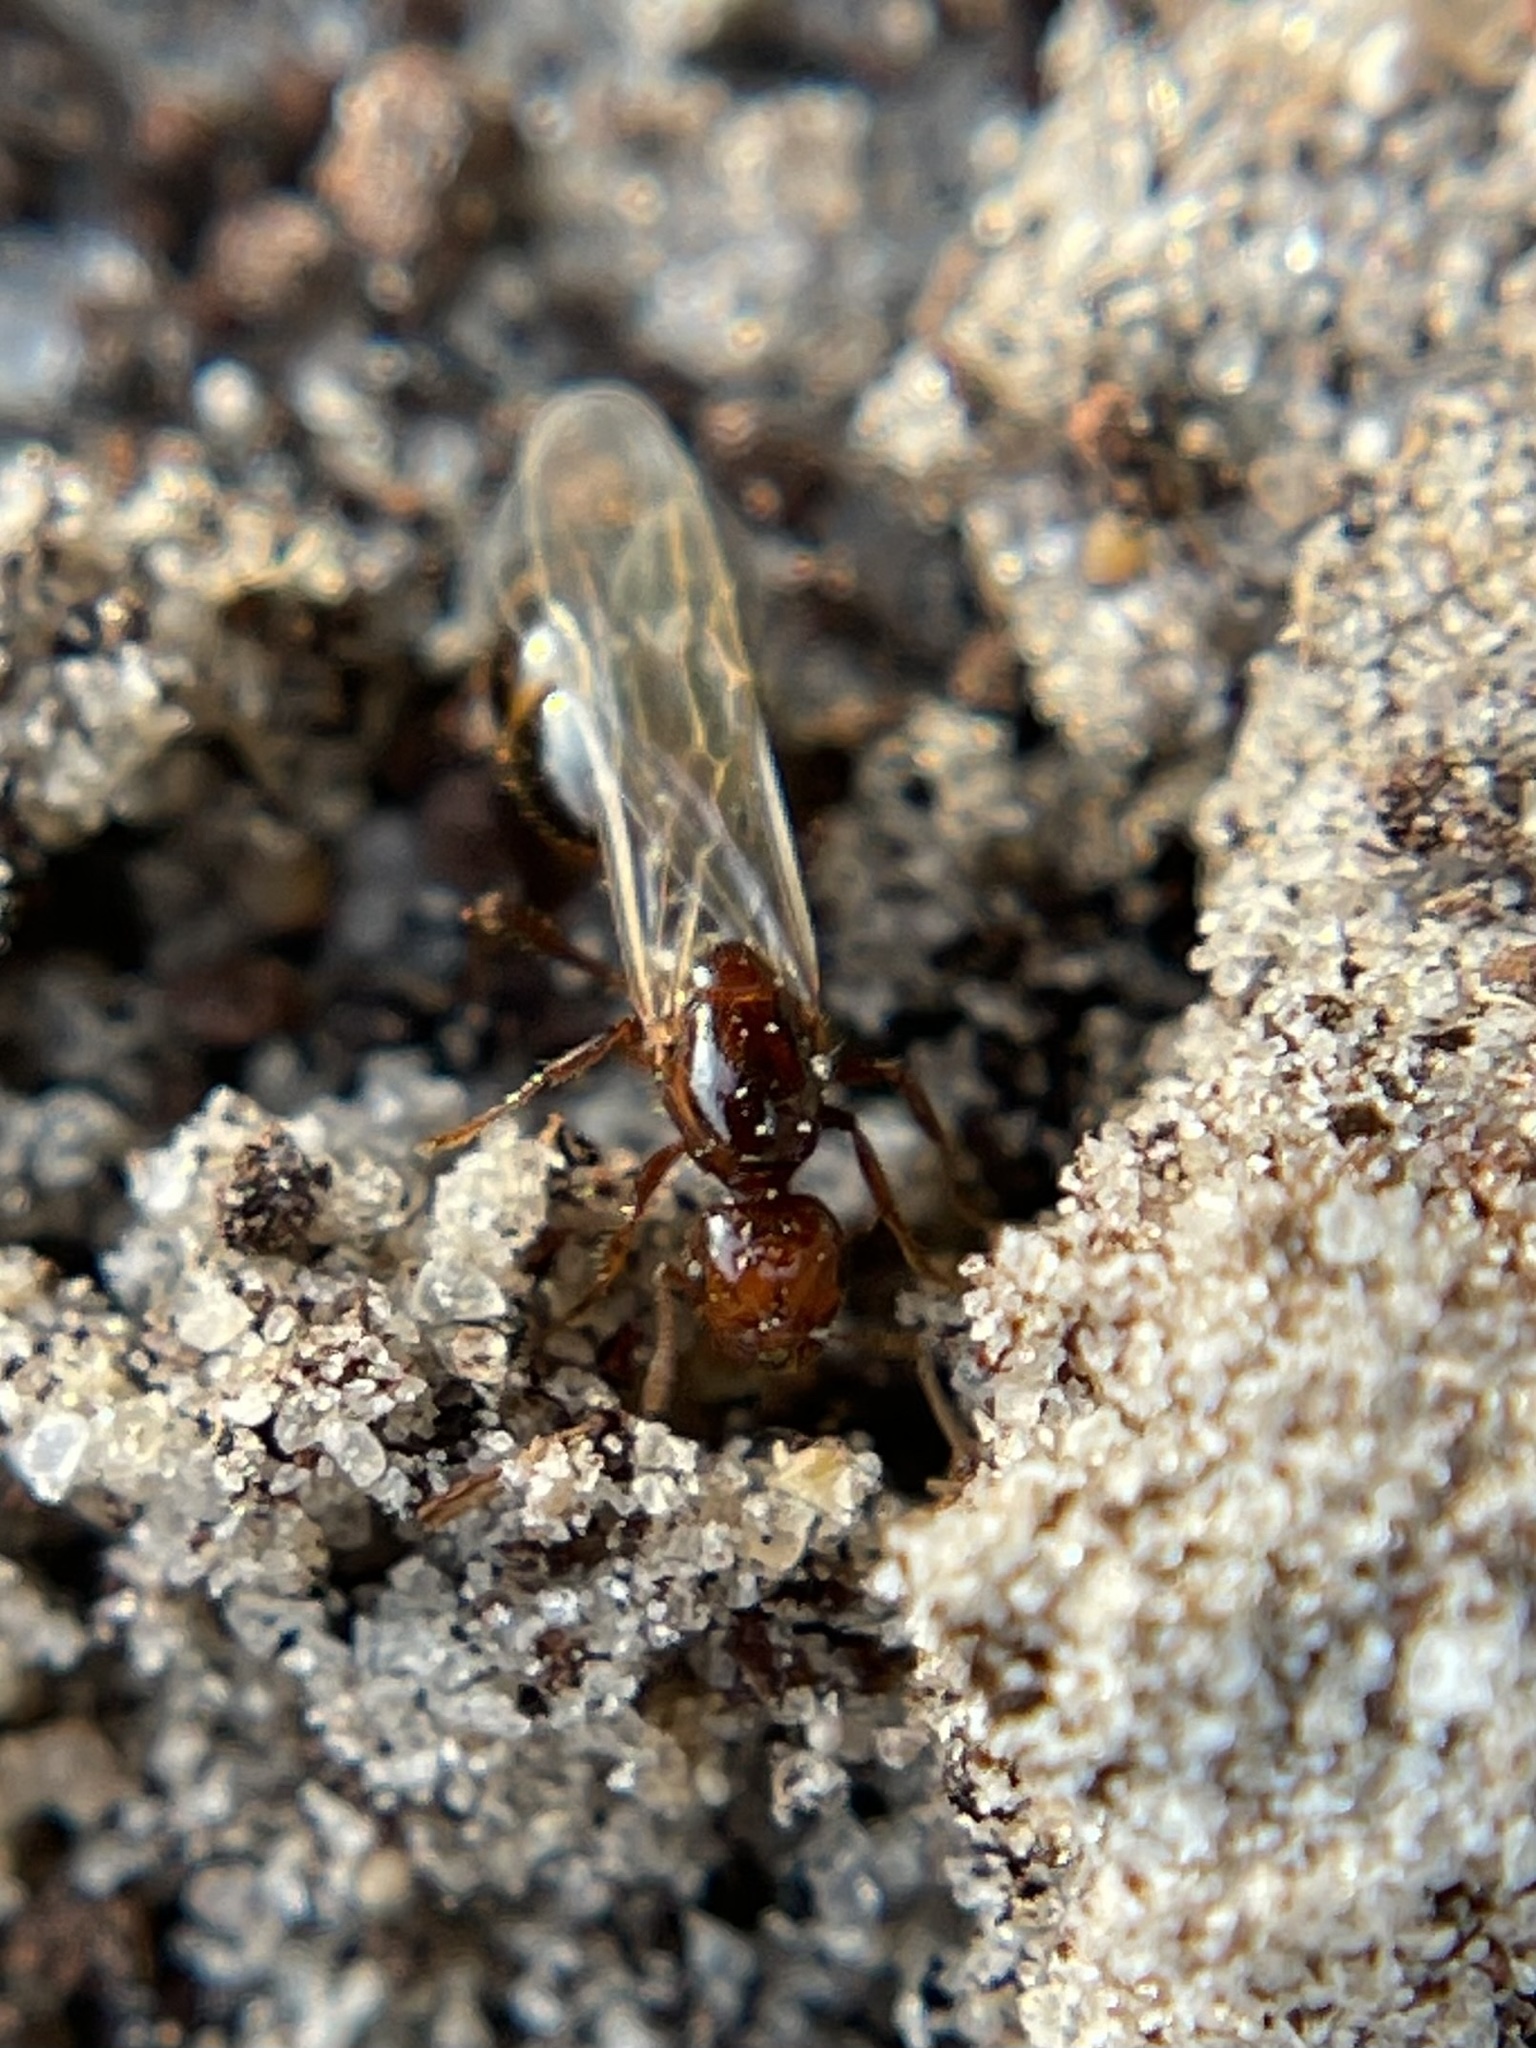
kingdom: Animalia
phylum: Arthropoda
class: Insecta
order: Hymenoptera
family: Formicidae
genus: Solenopsis
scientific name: Solenopsis invicta
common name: Red imported fire ant
